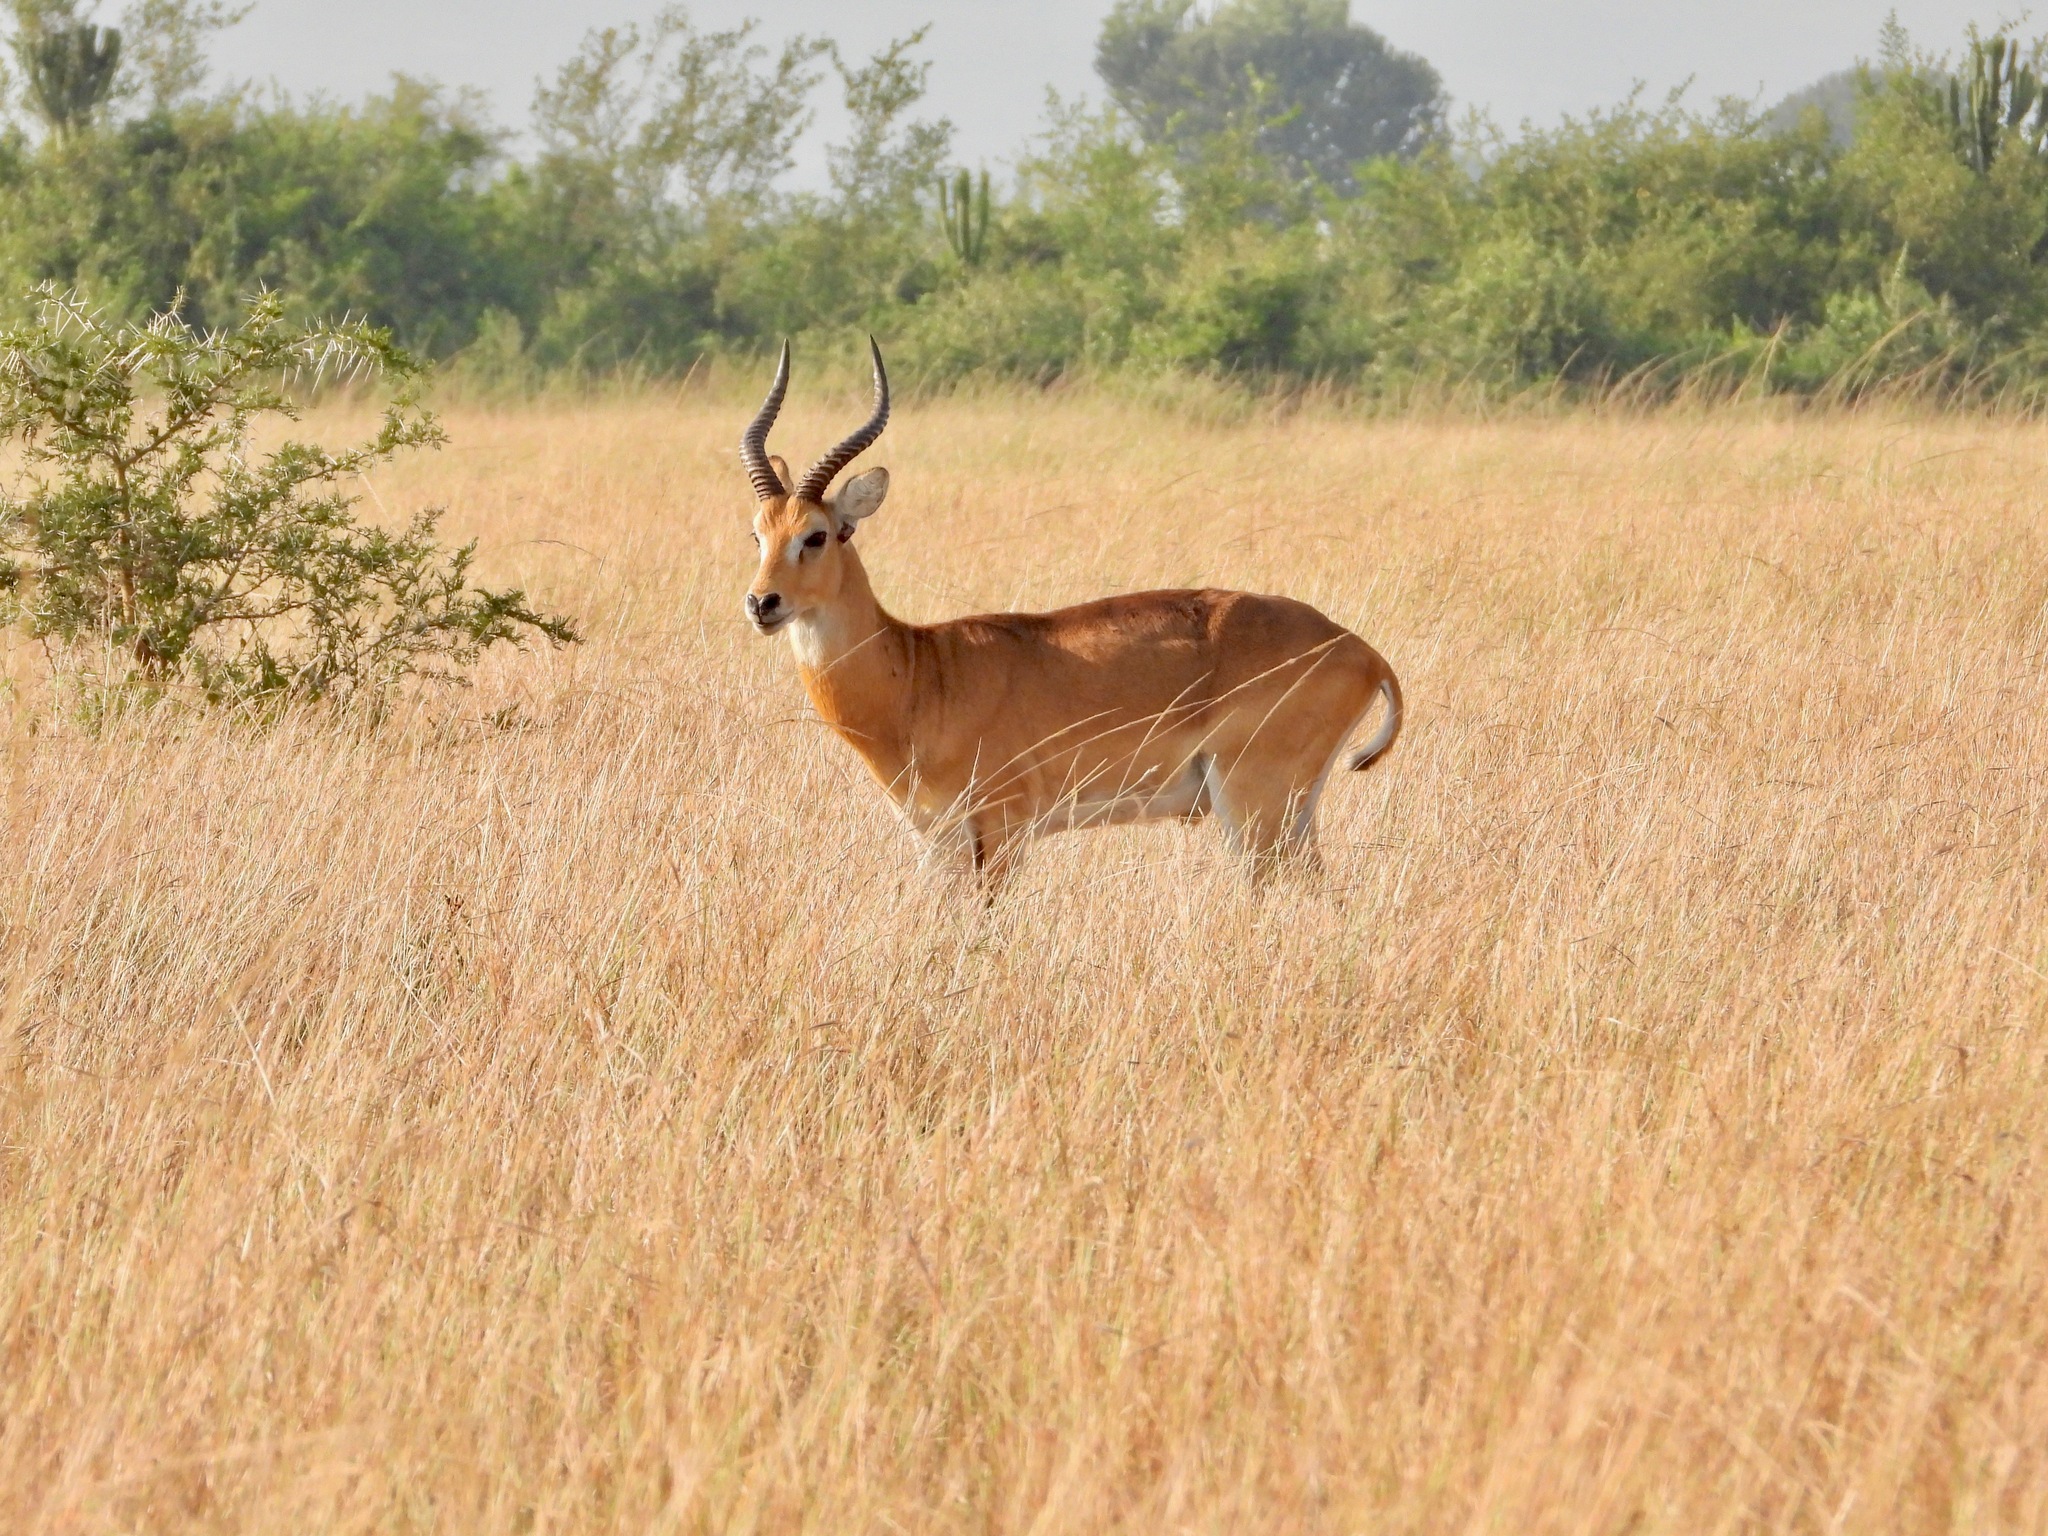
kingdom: Animalia
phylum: Chordata
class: Mammalia
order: Artiodactyla
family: Bovidae
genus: Kobus
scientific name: Kobus kob
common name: Kob
